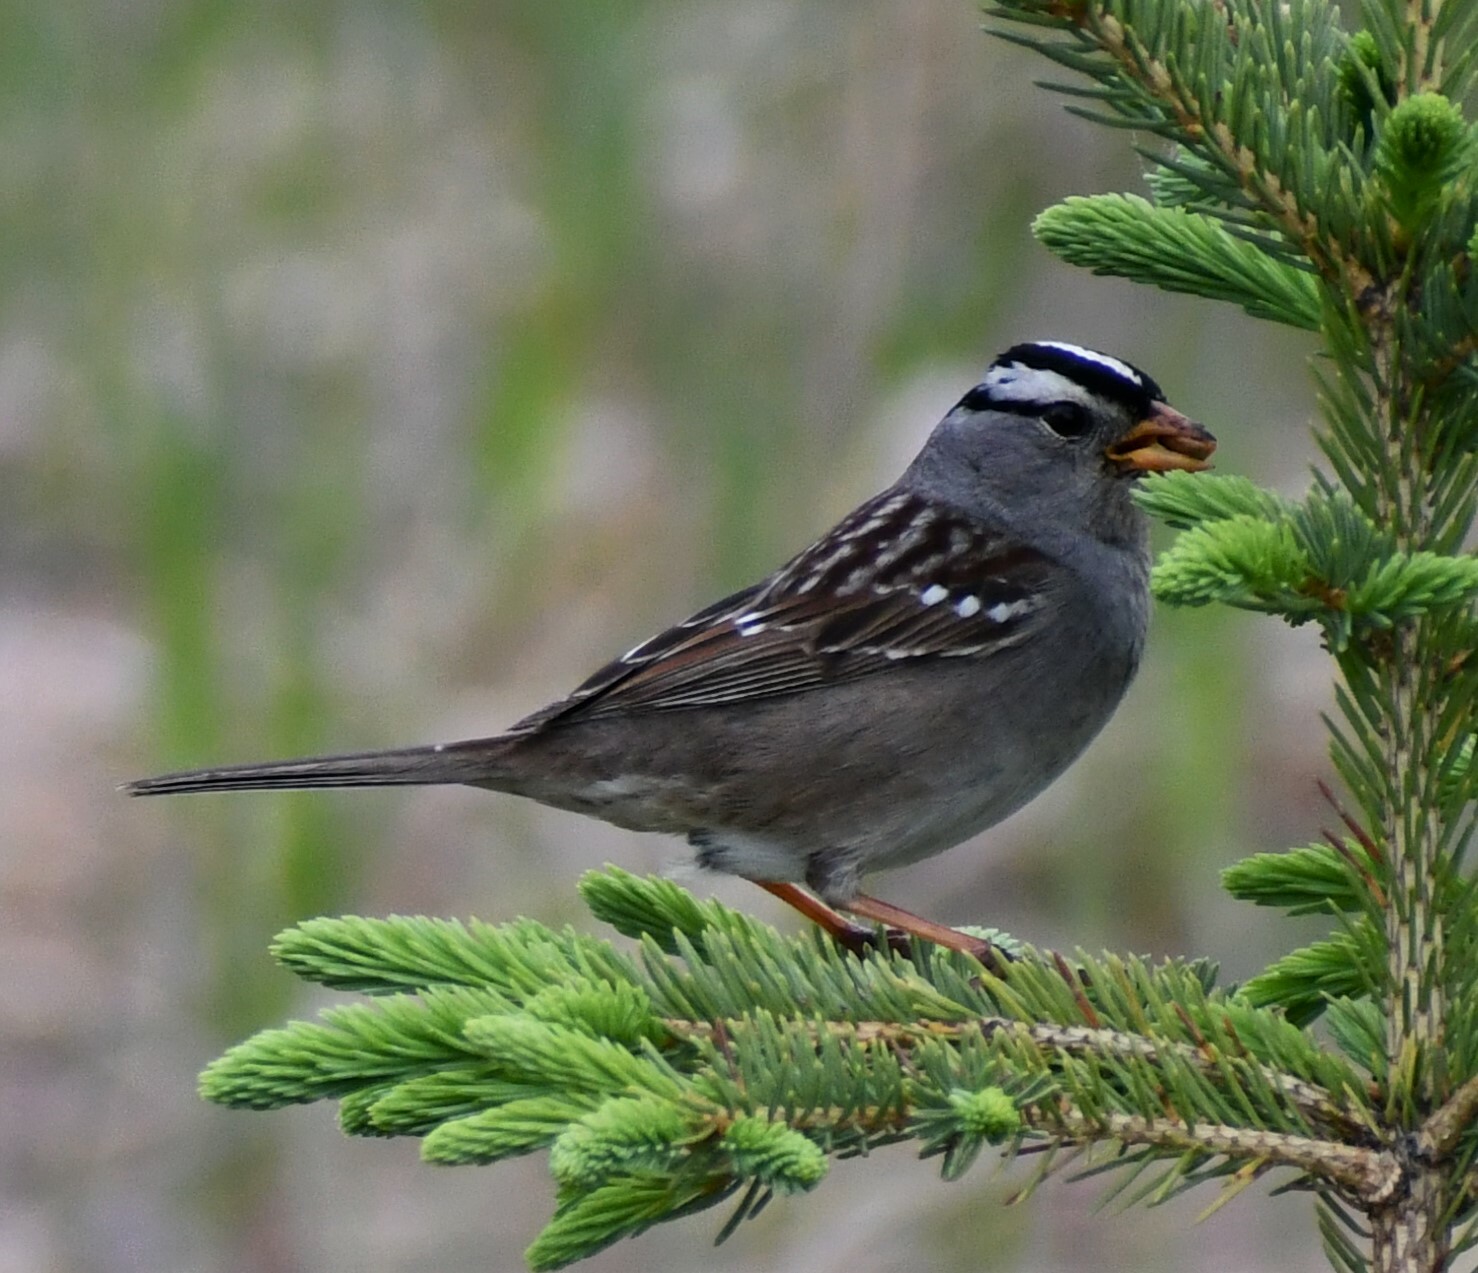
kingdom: Animalia
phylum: Chordata
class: Aves
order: Passeriformes
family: Passerellidae
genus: Zonotrichia
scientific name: Zonotrichia leucophrys
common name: White-crowned sparrow
